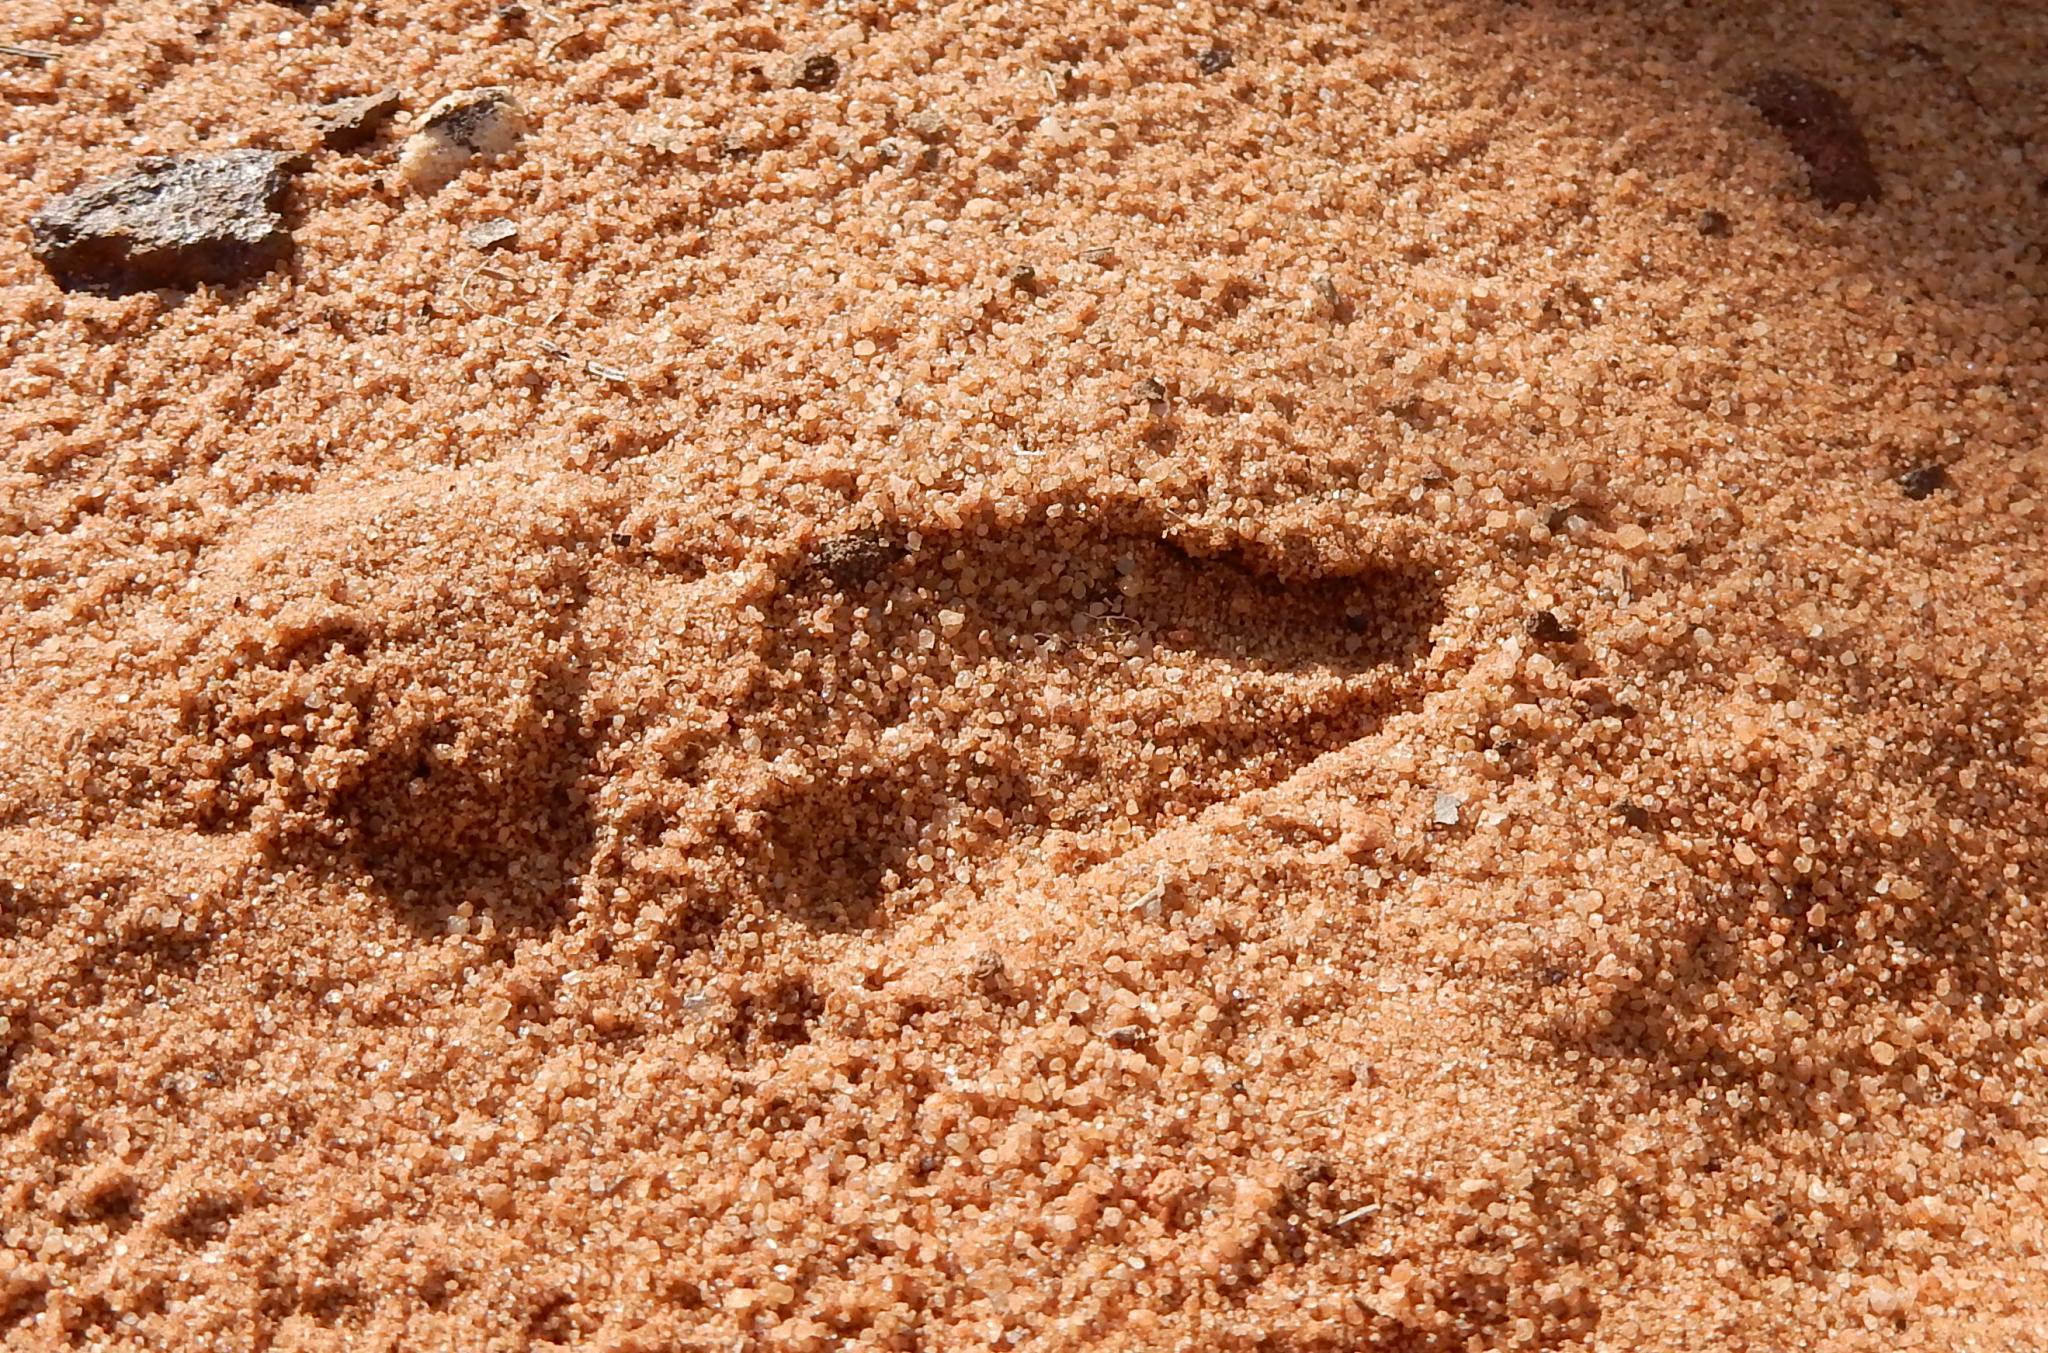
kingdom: Animalia
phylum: Chordata
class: Mammalia
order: Artiodactyla
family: Bovidae
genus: Raphicerus
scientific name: Raphicerus campestris
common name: Steenbok
